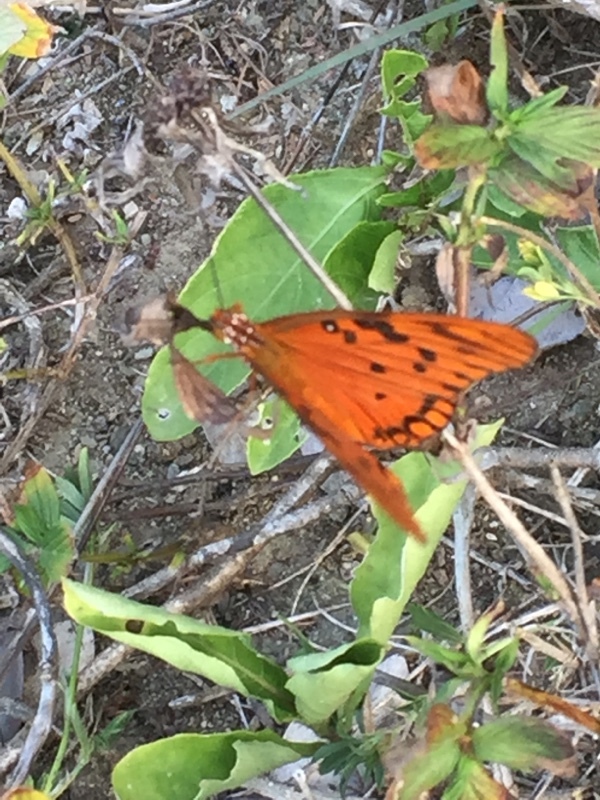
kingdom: Animalia
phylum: Arthropoda
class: Insecta
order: Lepidoptera
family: Nymphalidae
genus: Dione
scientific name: Dione vanillae
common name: Gulf fritillary
